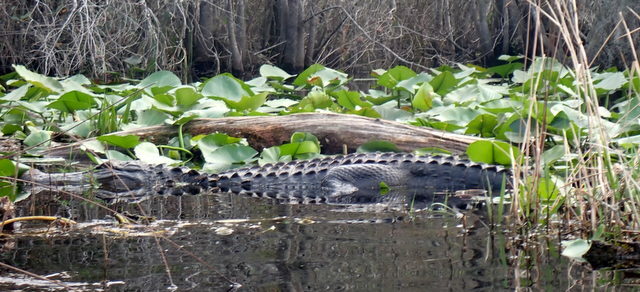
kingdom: Animalia
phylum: Chordata
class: Crocodylia
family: Alligatoridae
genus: Alligator
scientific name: Alligator mississippiensis
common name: American alligator
